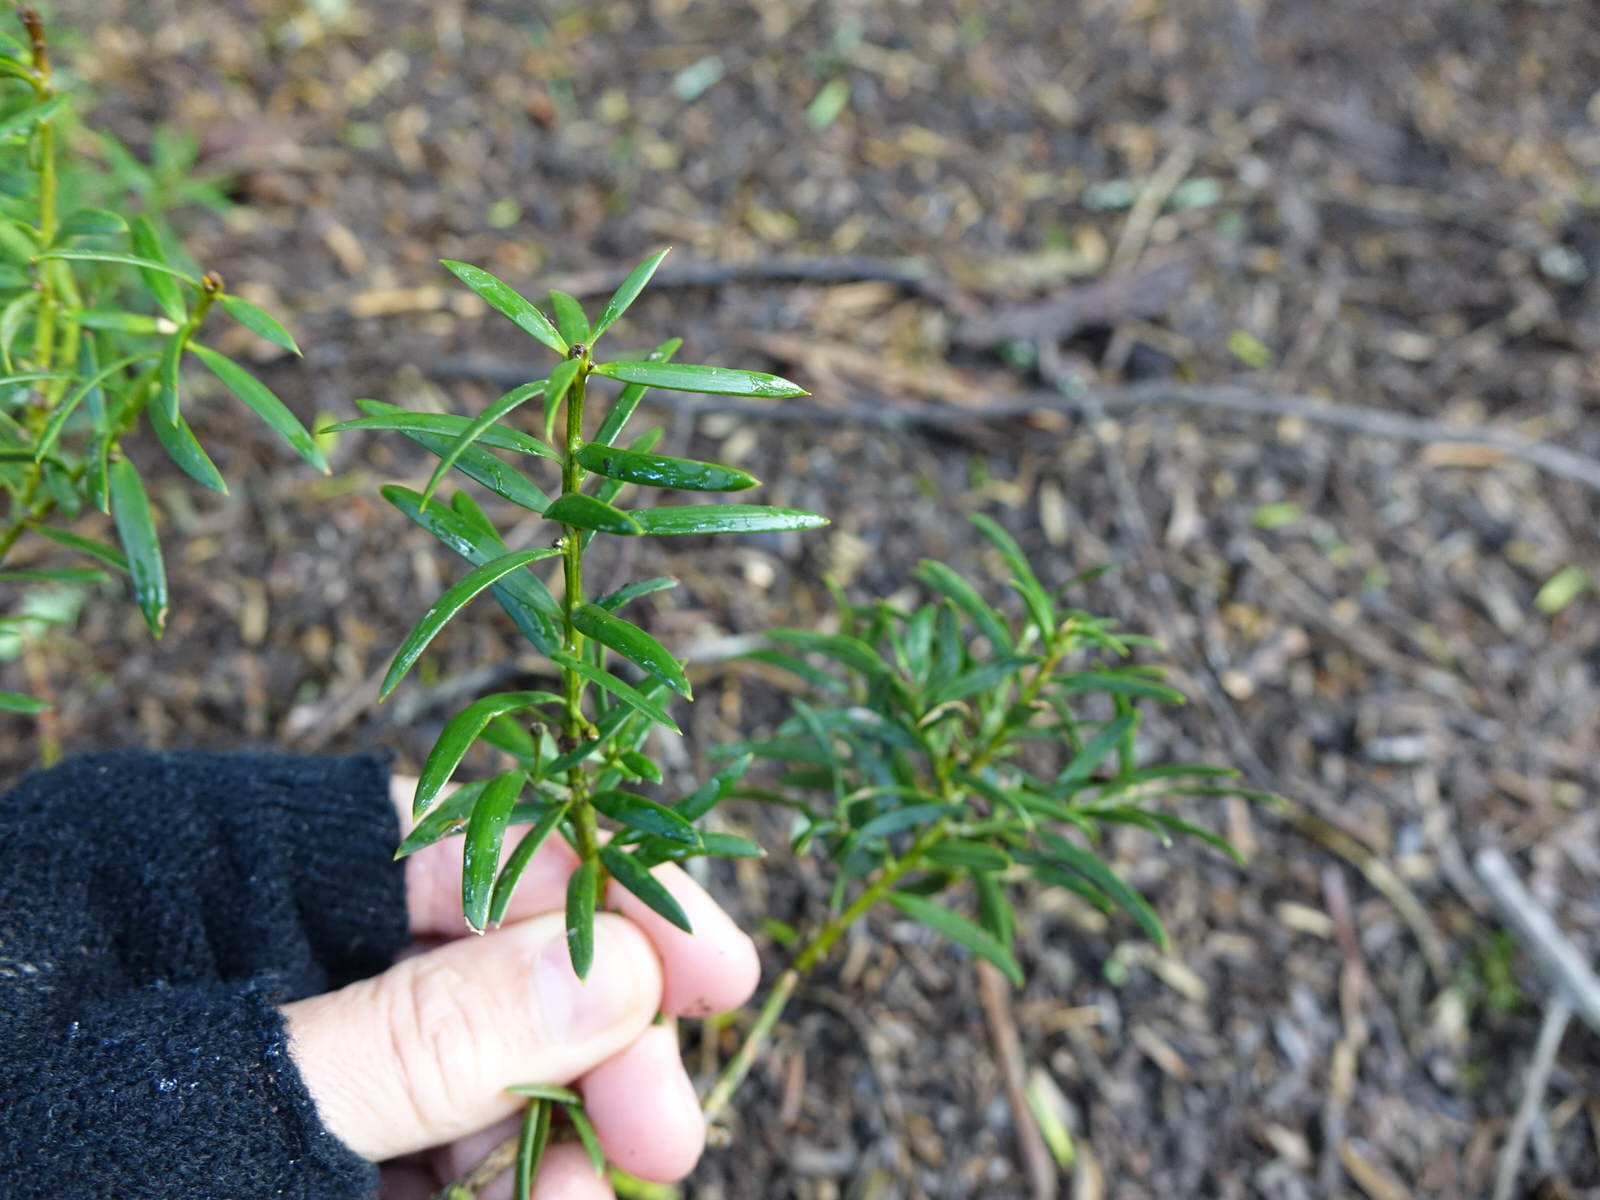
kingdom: Plantae
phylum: Tracheophyta
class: Pinopsida
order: Pinales
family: Podocarpaceae
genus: Podocarpus
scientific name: Podocarpus totara
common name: Totara
